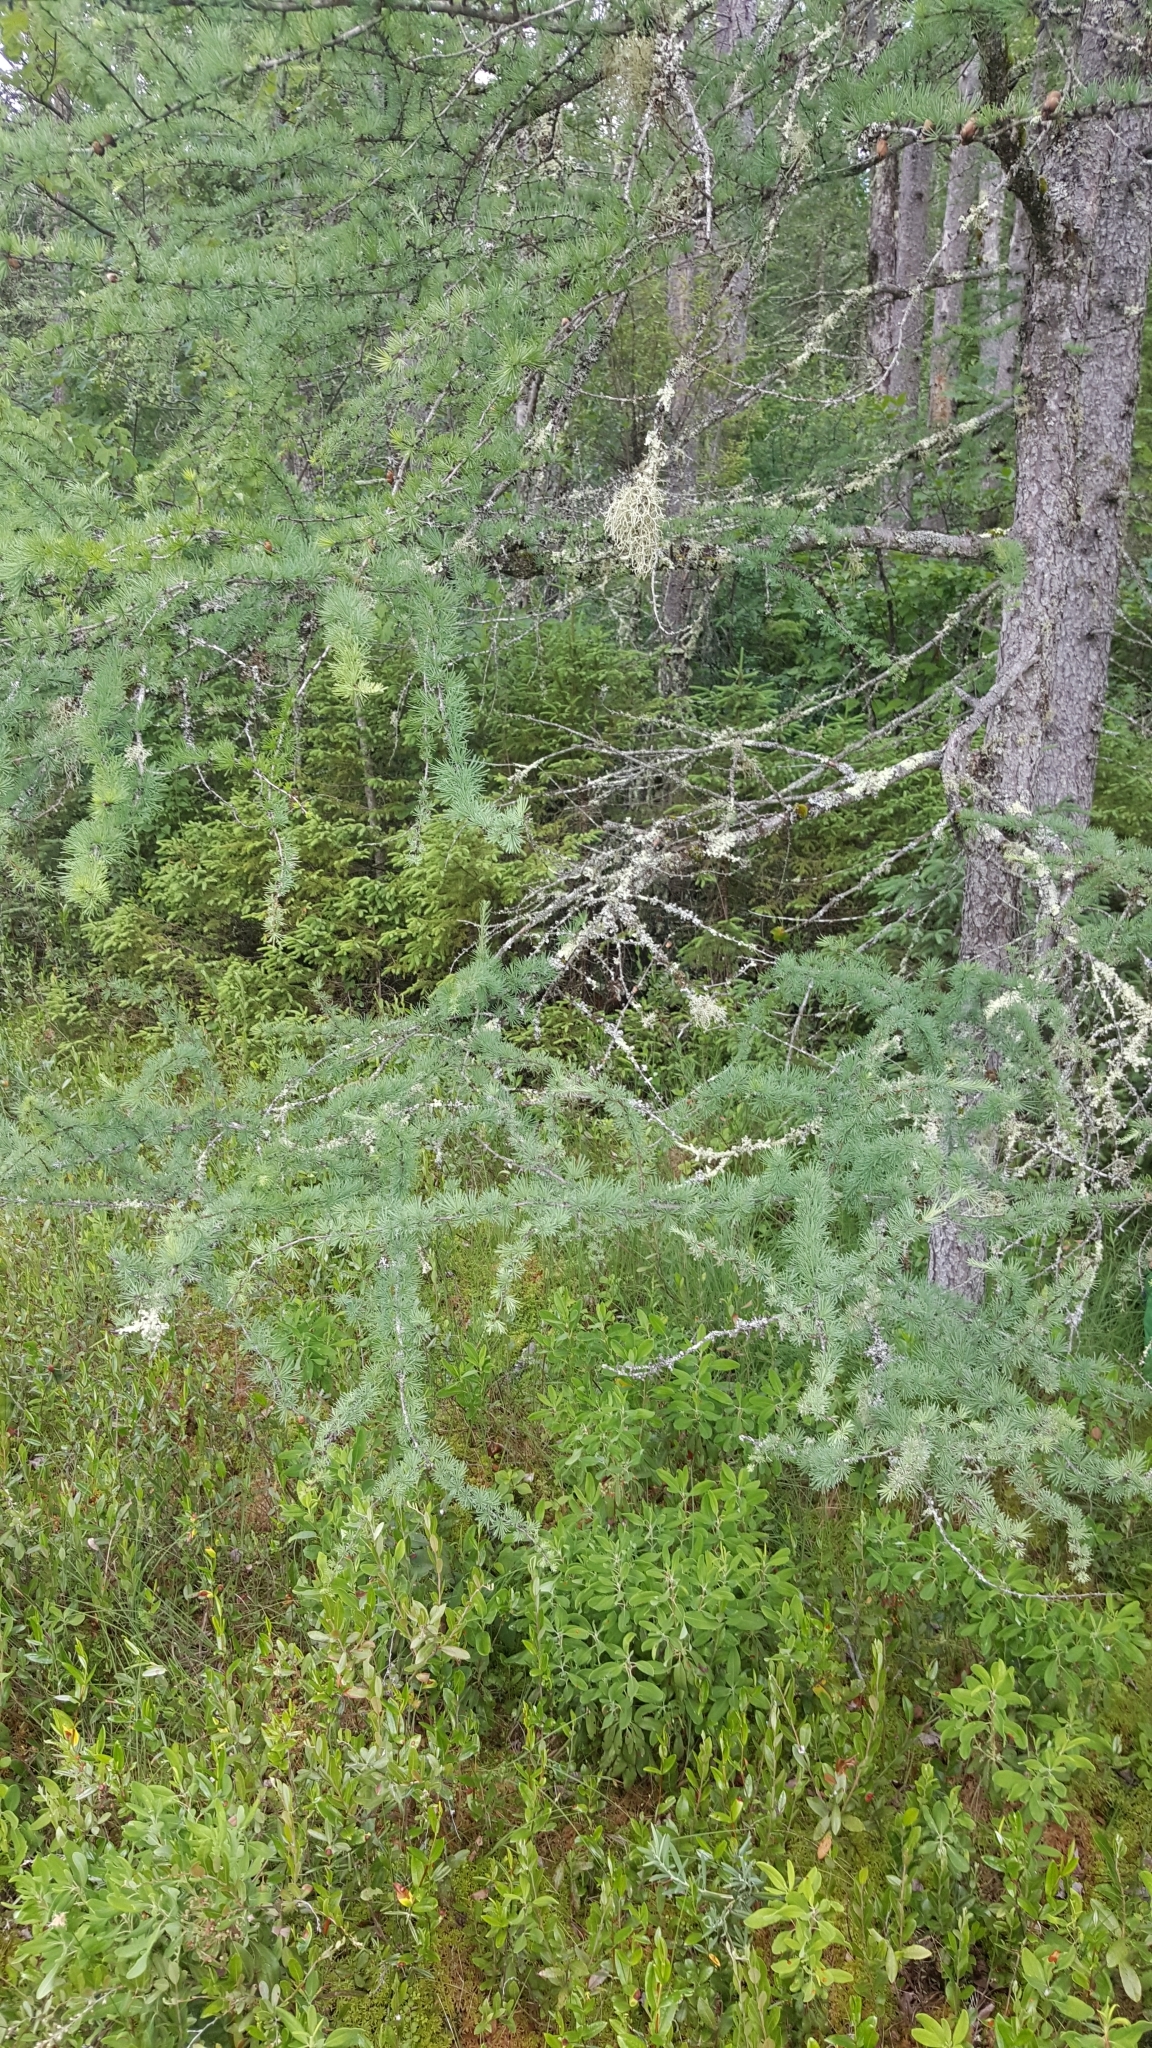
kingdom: Plantae
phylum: Tracheophyta
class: Pinopsida
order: Pinales
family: Pinaceae
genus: Larix
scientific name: Larix laricina
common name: American larch
